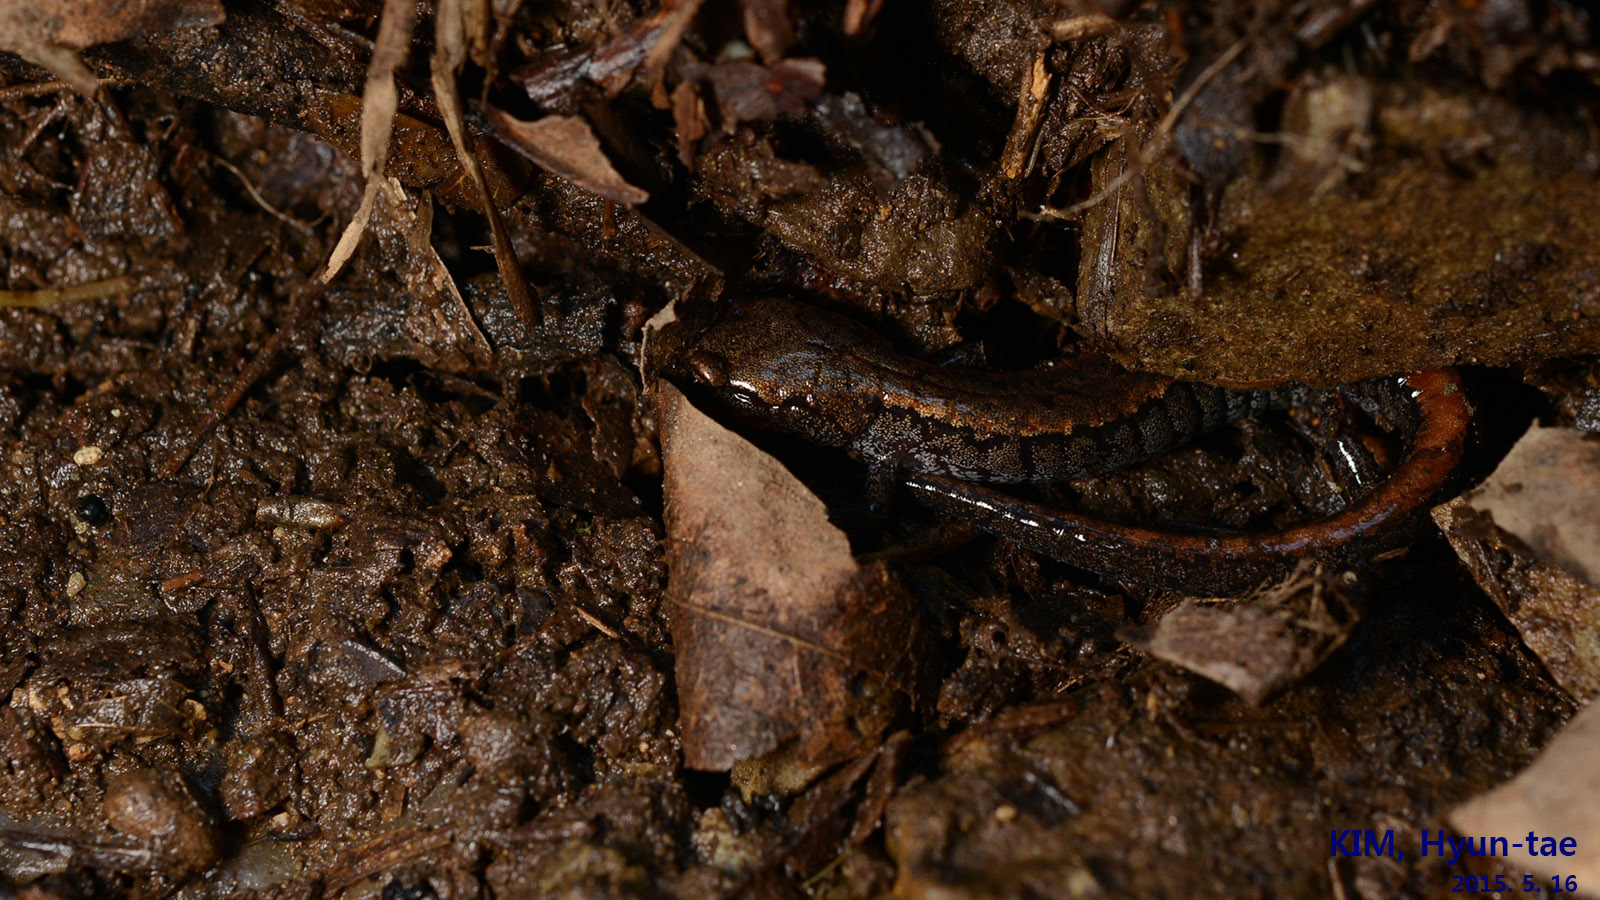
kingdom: Animalia
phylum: Chordata
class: Amphibia
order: Caudata
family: Plethodontidae
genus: Karsenia
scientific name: Karsenia koreana
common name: Korean crevice salamander
